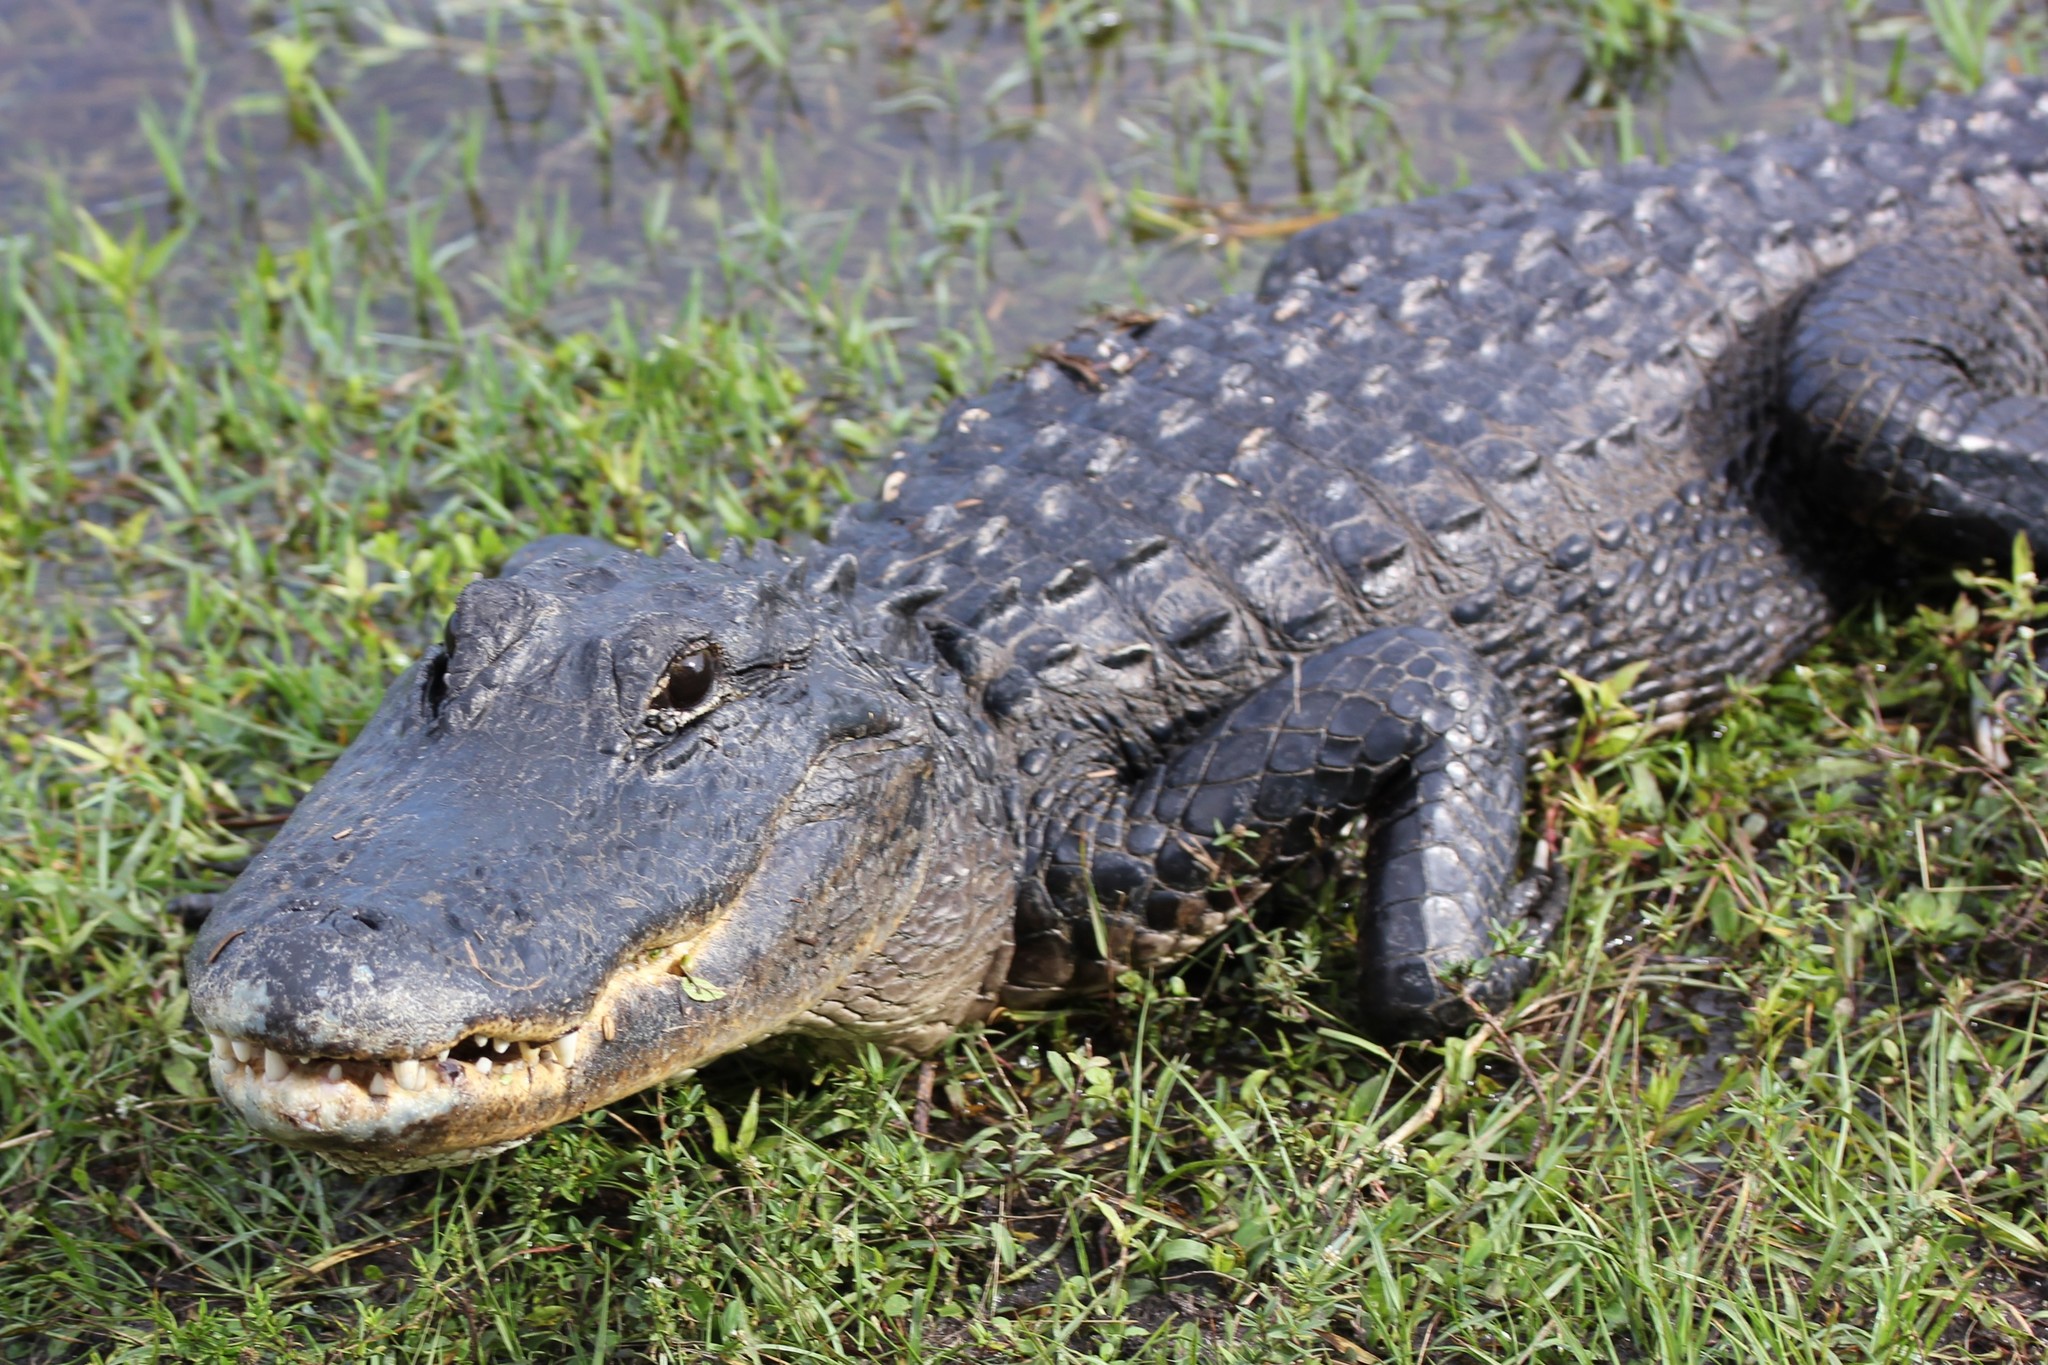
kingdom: Animalia
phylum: Chordata
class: Crocodylia
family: Alligatoridae
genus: Alligator
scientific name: Alligator mississippiensis
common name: American alligator
